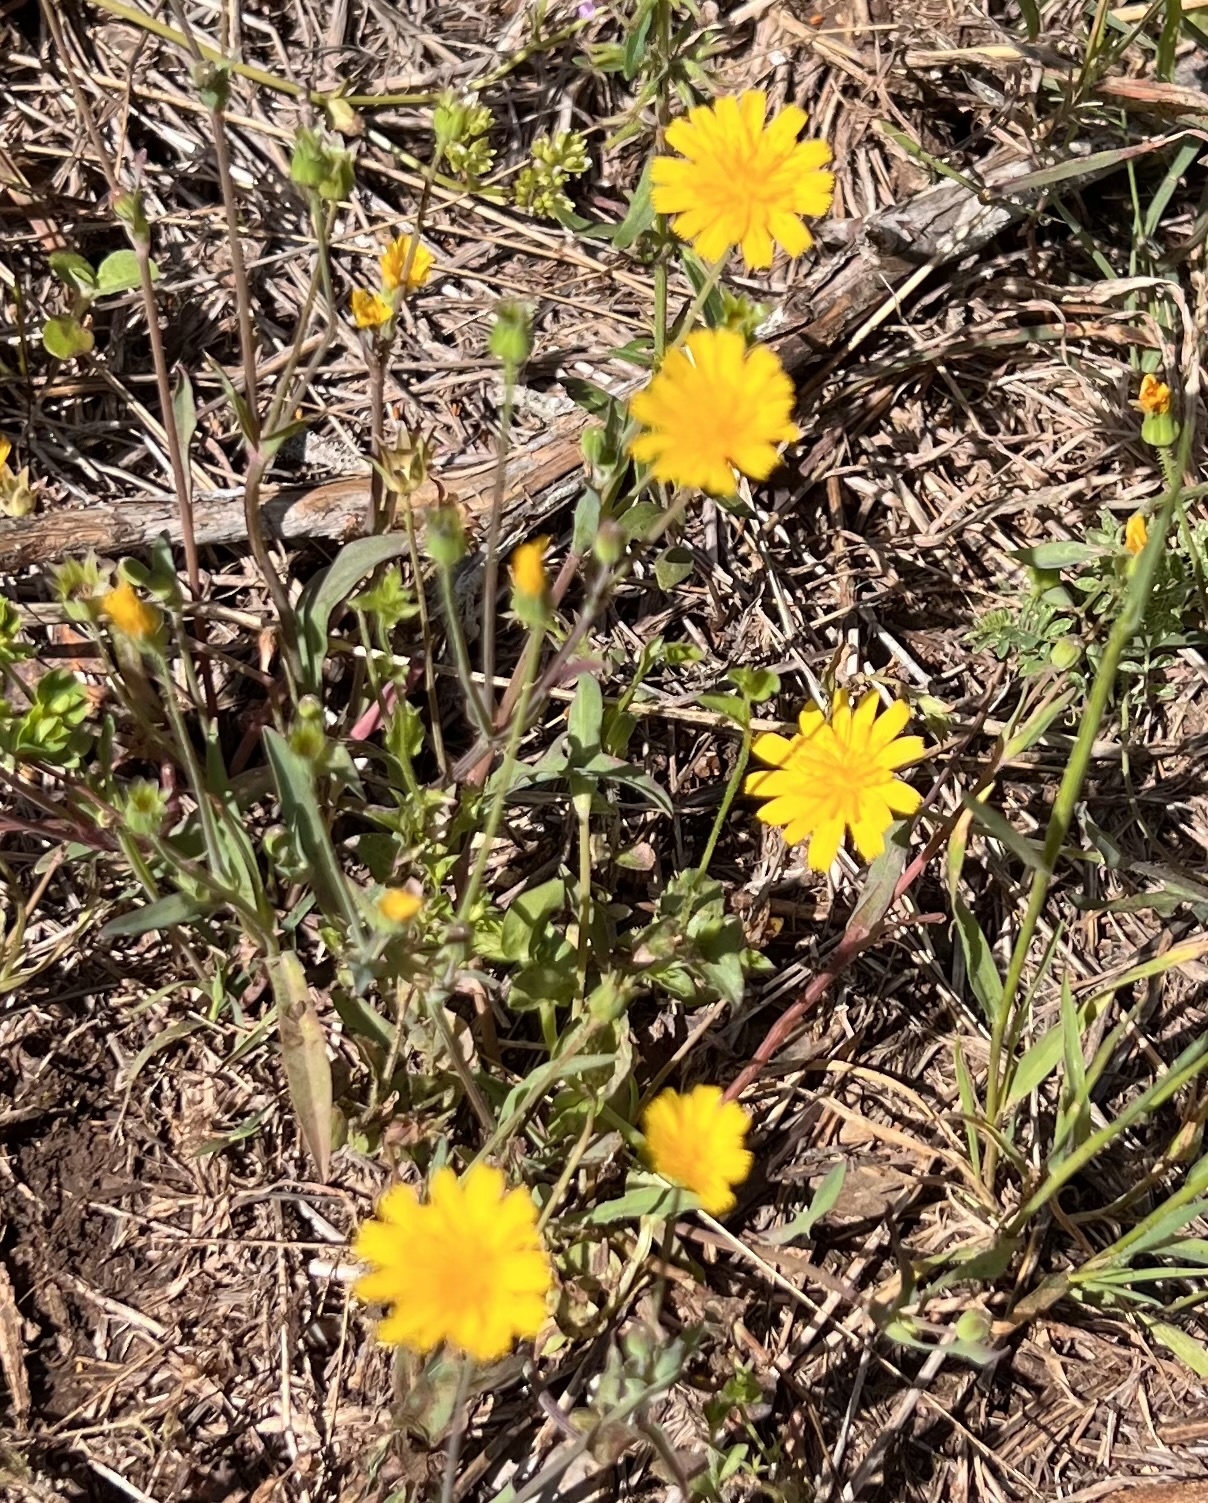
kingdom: Plantae
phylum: Tracheophyta
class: Magnoliopsida
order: Asterales
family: Asteraceae
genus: Krigia
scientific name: Krigia cespitosa
